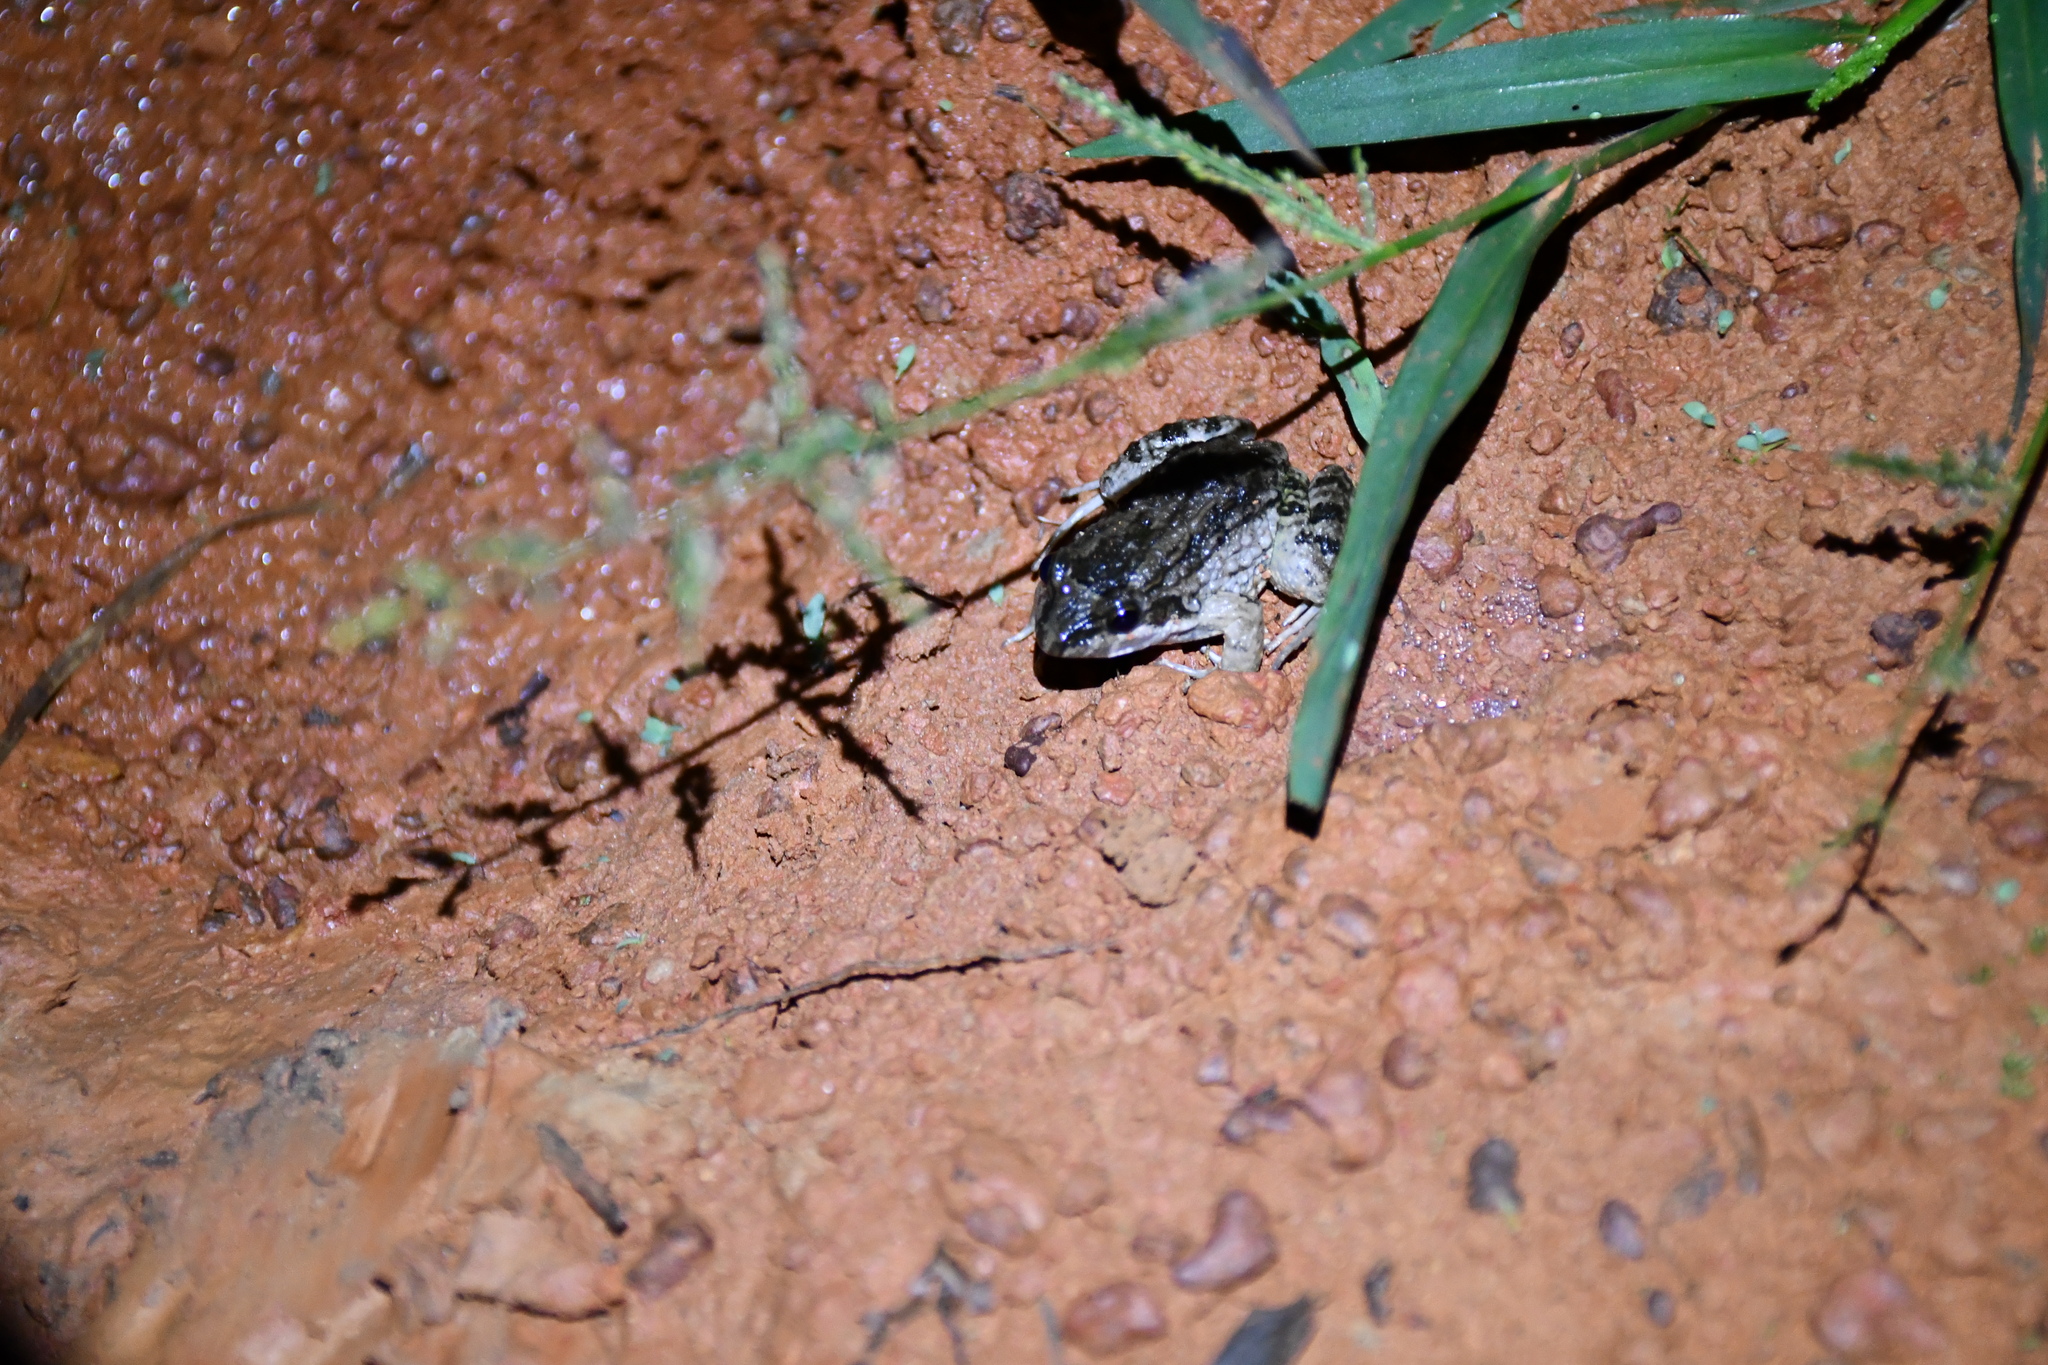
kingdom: Animalia
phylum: Chordata
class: Amphibia
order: Anura
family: Leptodactylidae
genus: Leptodactylus
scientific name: Leptodactylus petersii
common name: Peters' thin-toed frog
